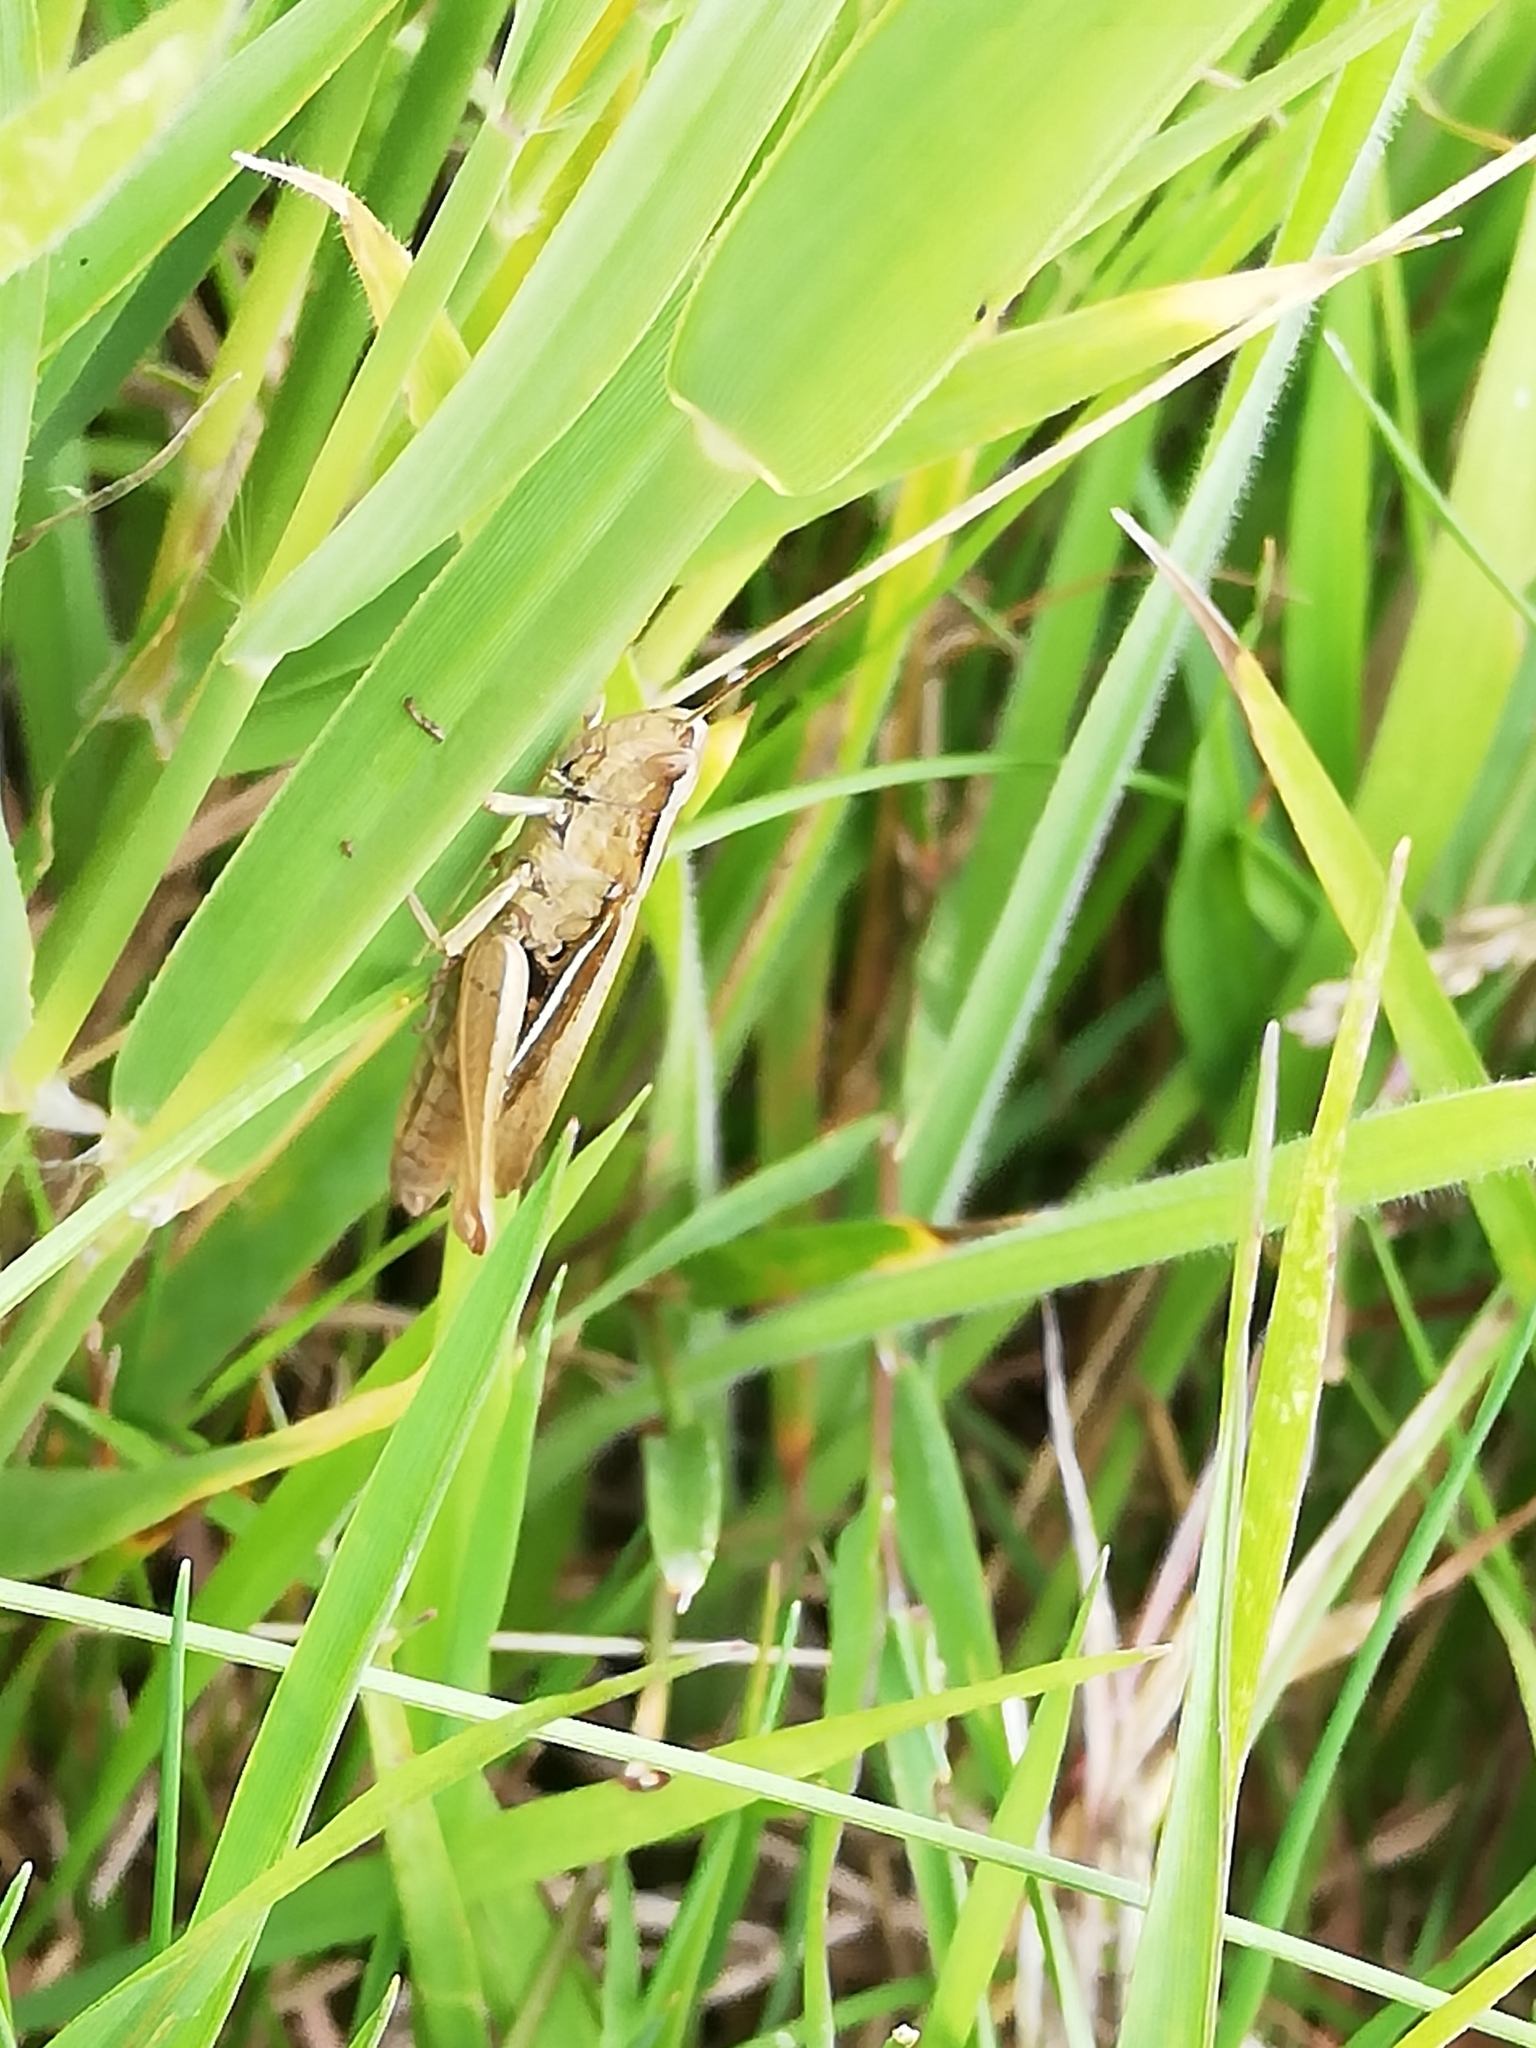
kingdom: Animalia
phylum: Arthropoda
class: Insecta
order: Orthoptera
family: Acrididae
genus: Chorthippus
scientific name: Chorthippus albomarginatus
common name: Lesser marsh grasshopper
